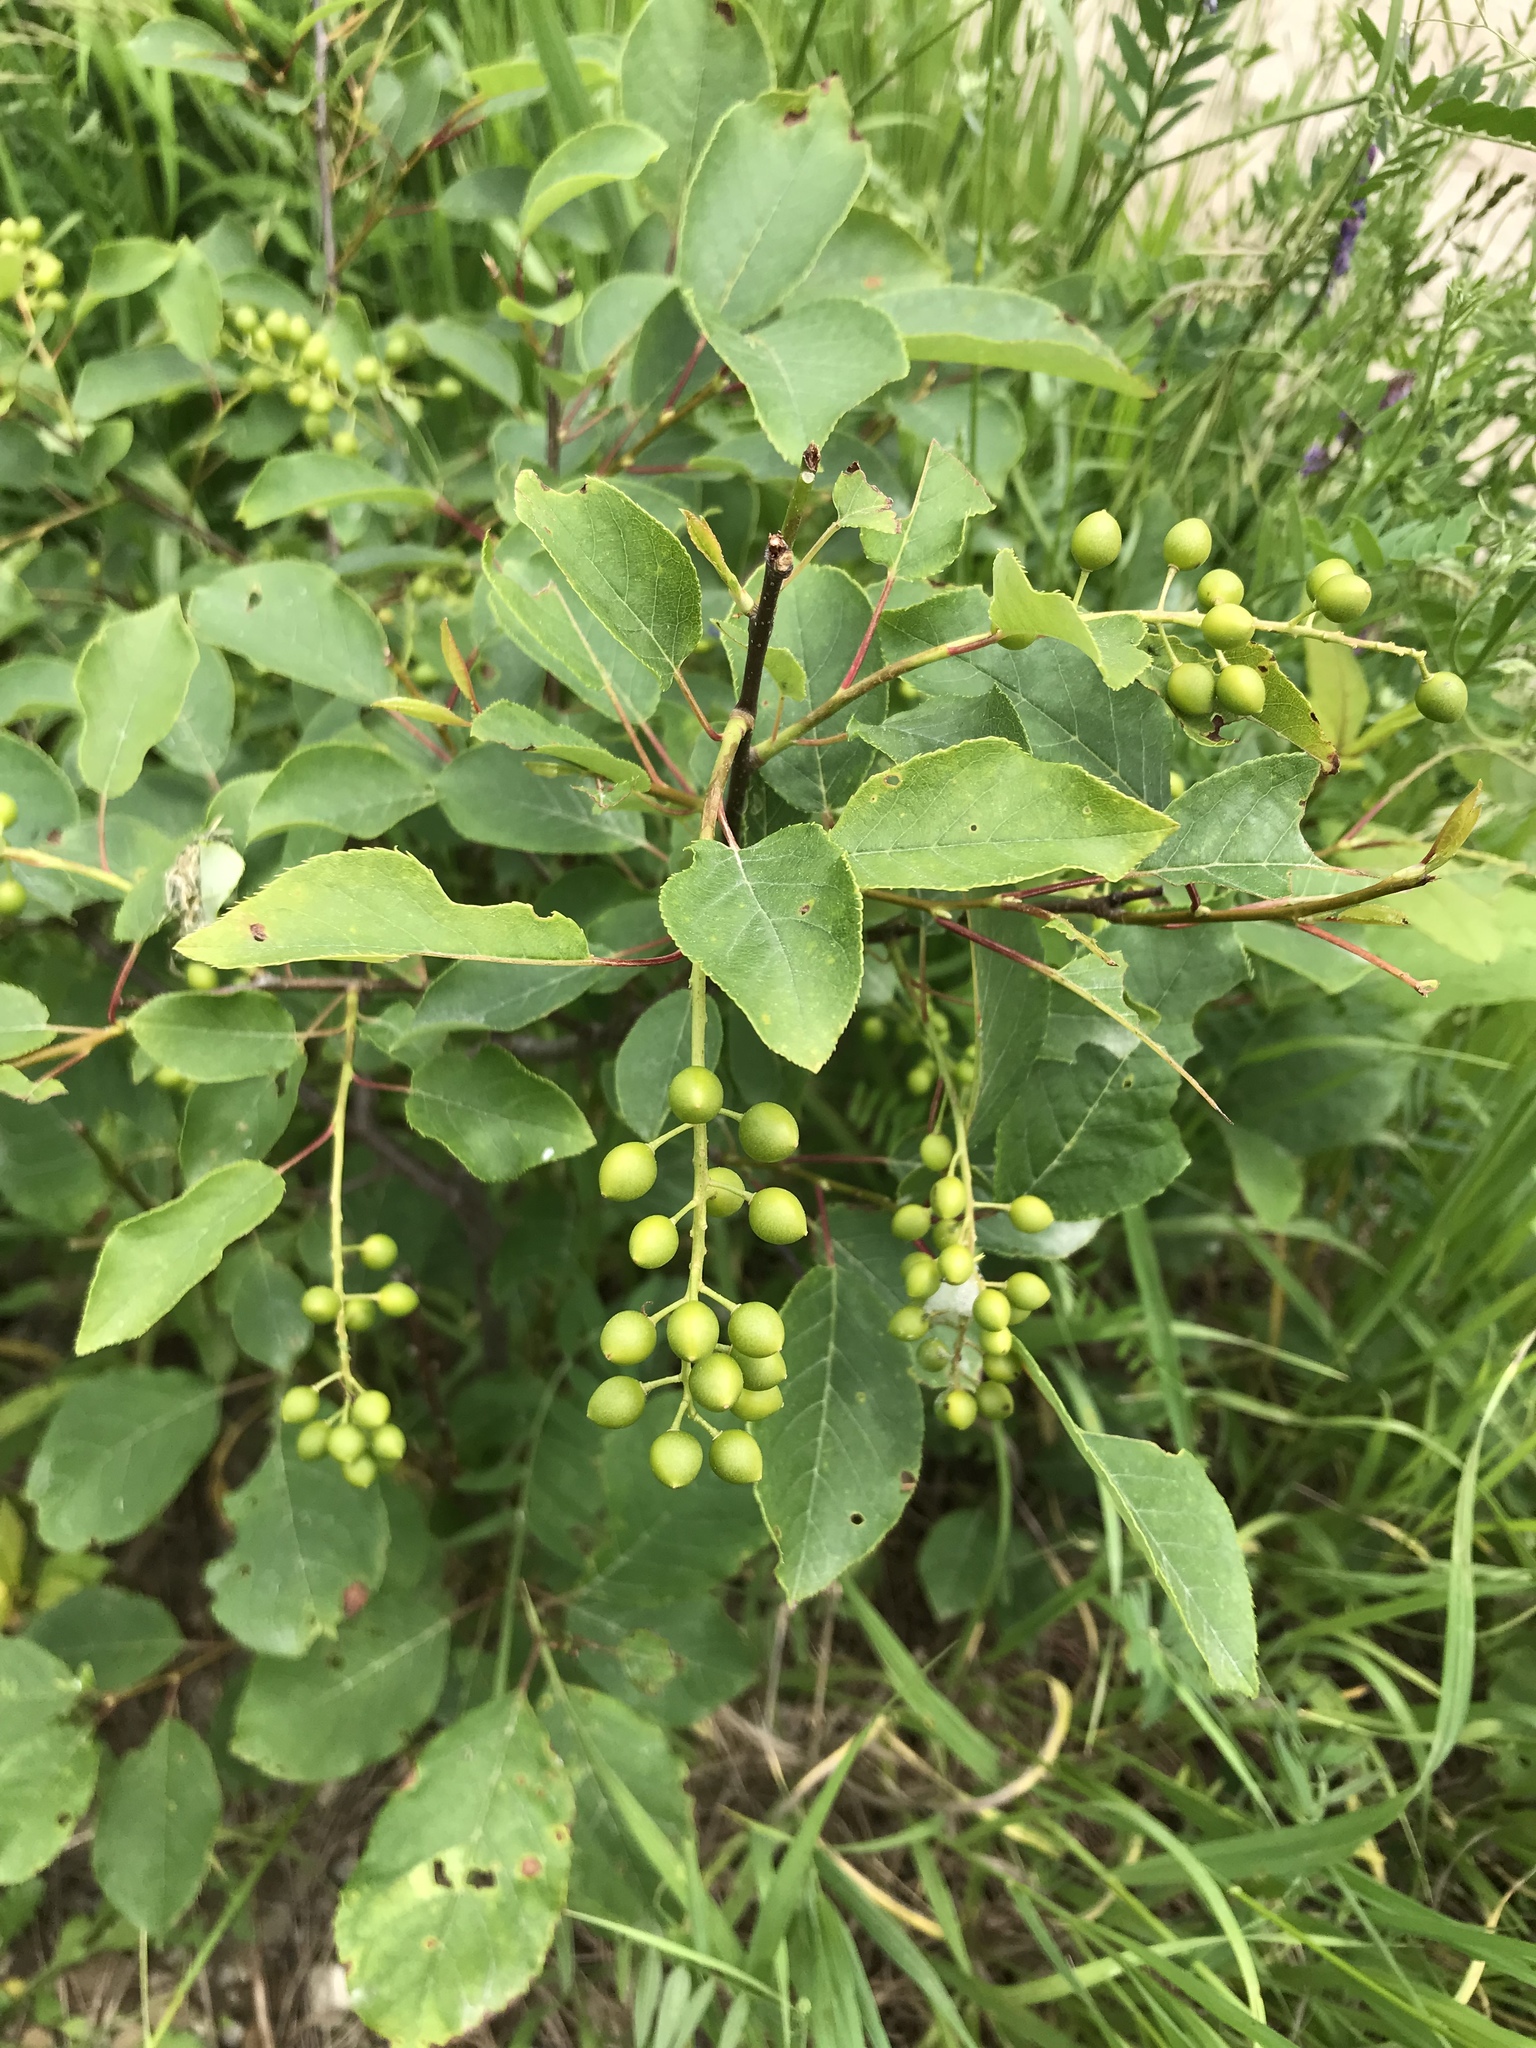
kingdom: Plantae
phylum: Tracheophyta
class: Magnoliopsida
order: Rosales
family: Rosaceae
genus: Prunus
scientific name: Prunus virginiana
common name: Chokecherry
